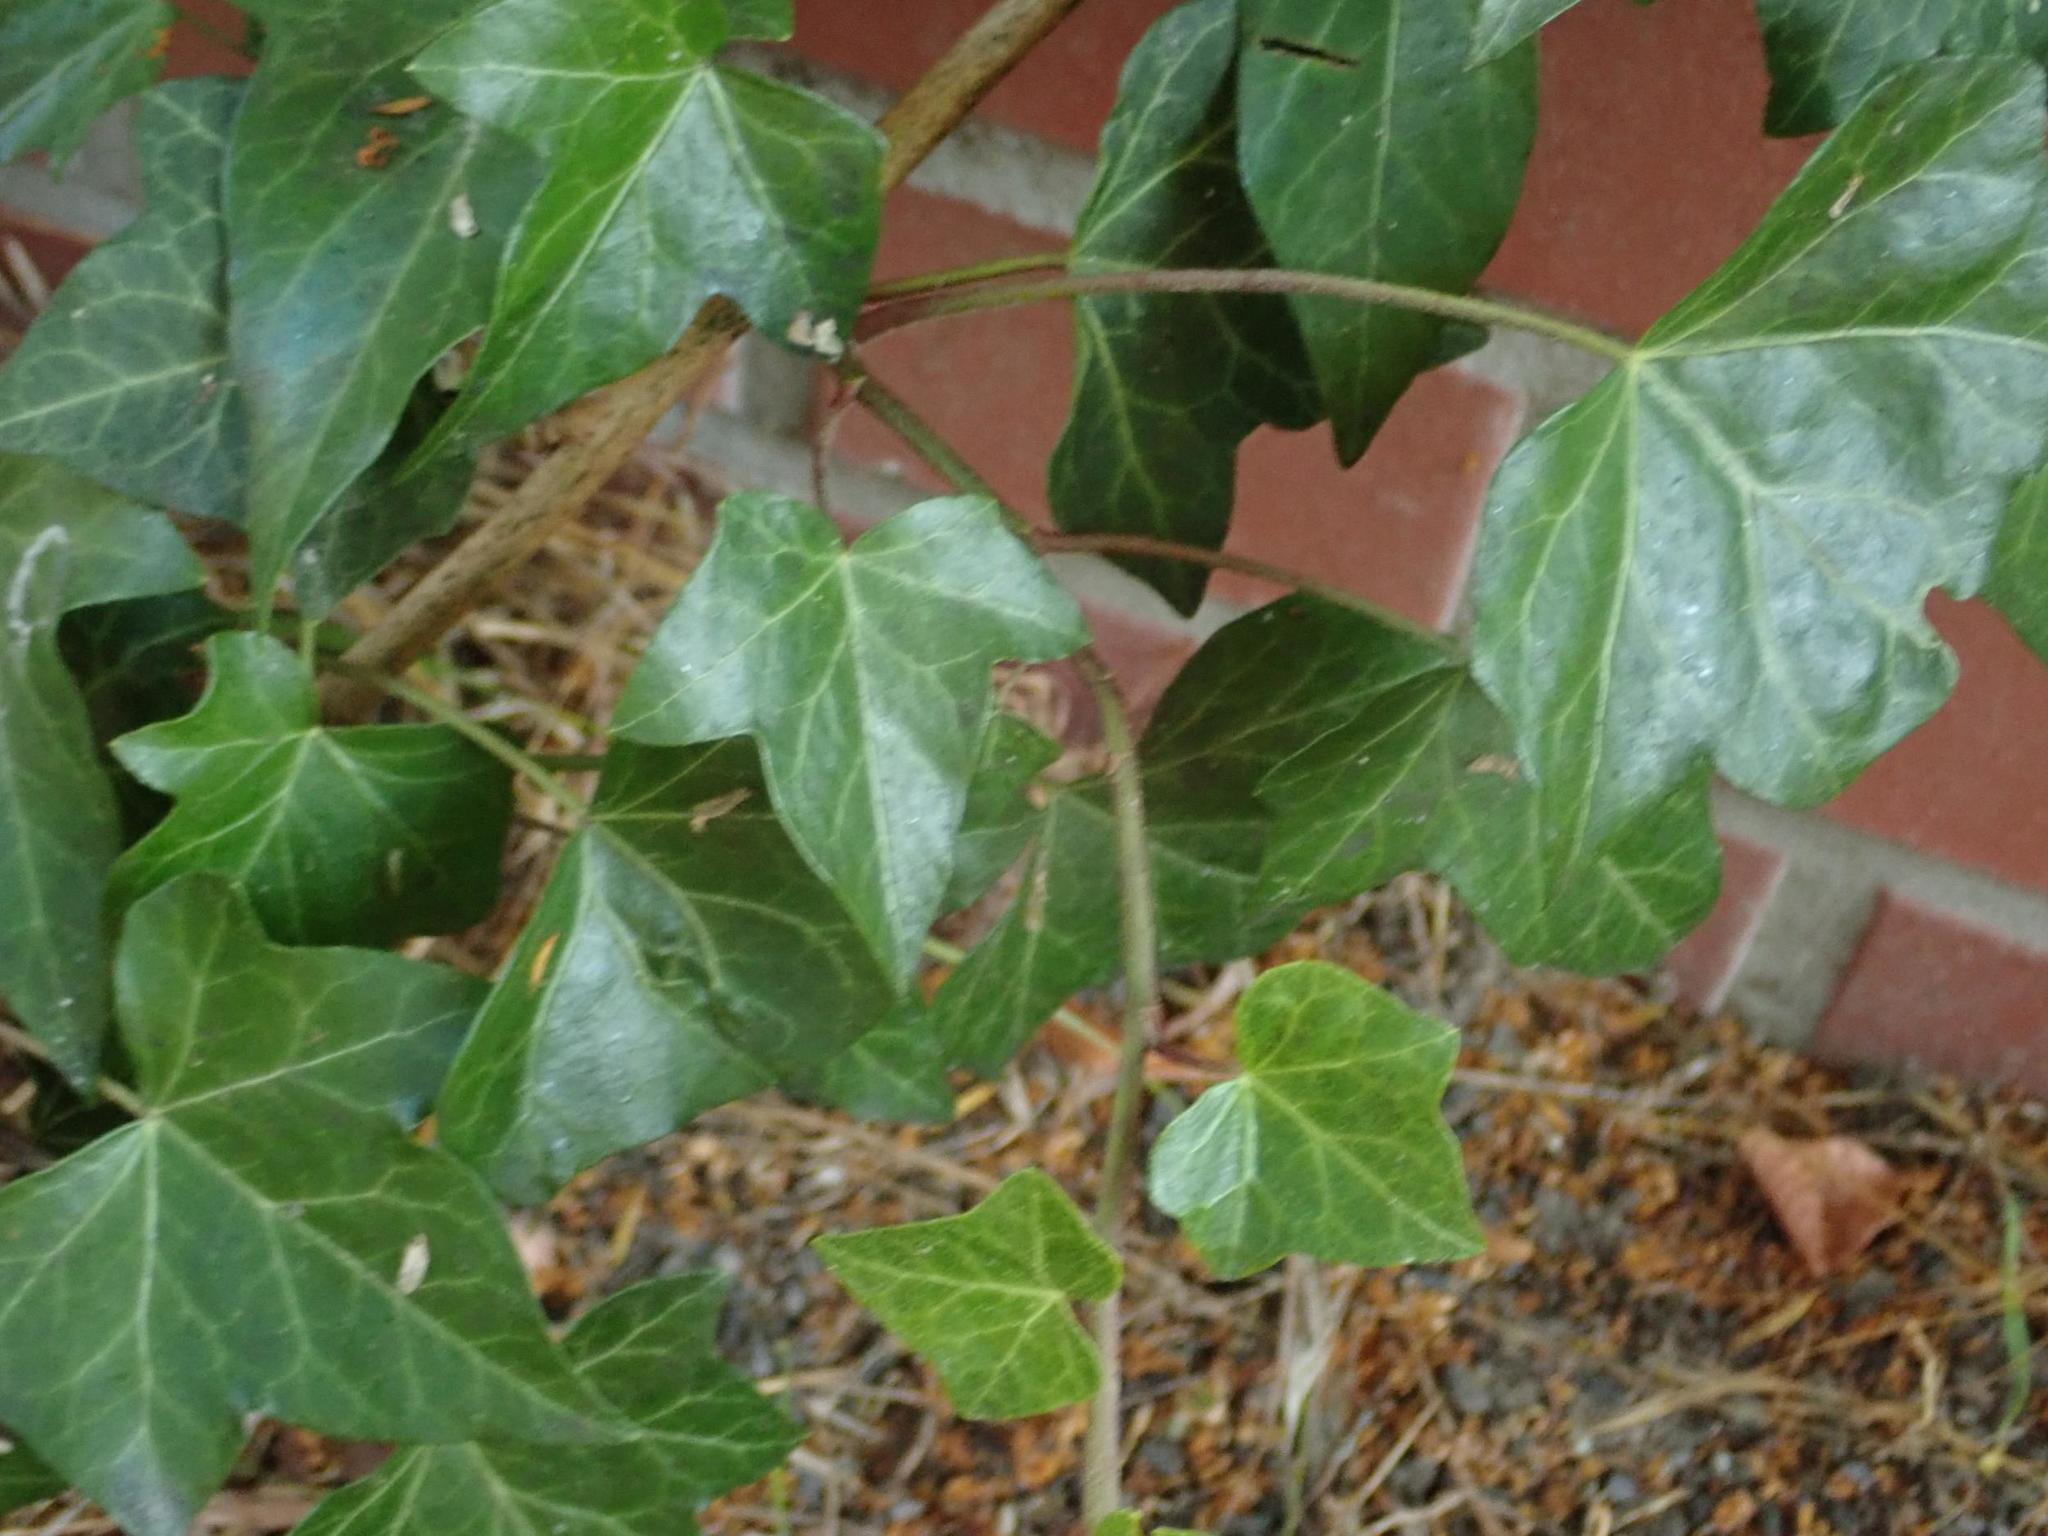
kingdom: Plantae
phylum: Tracheophyta
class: Magnoliopsida
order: Apiales
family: Araliaceae
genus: Hedera
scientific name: Hedera helix
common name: Ivy
